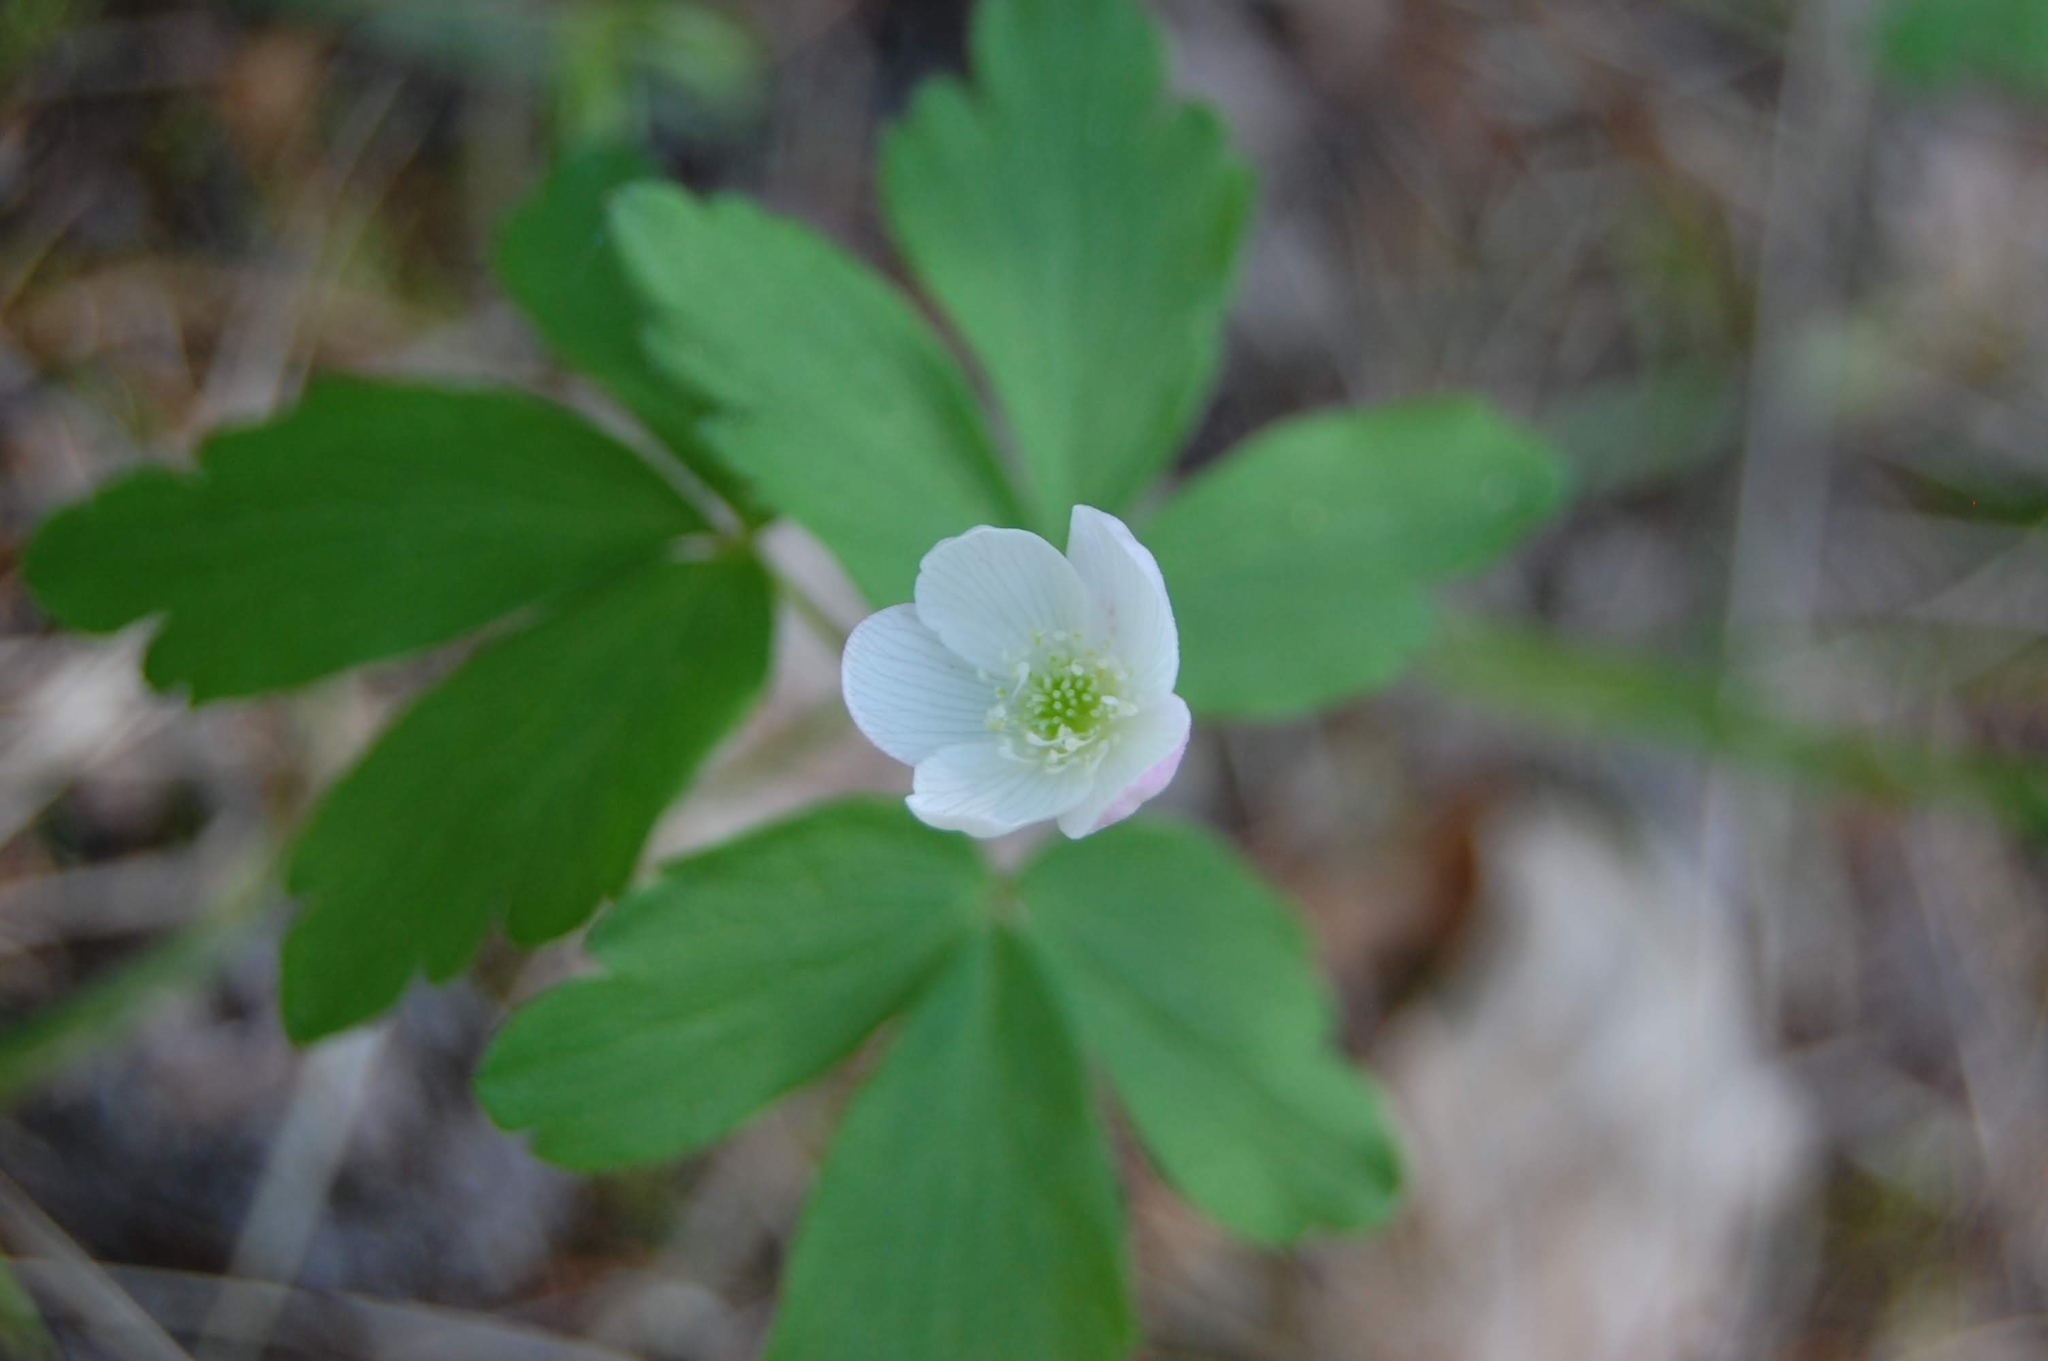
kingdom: Plantae
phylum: Tracheophyta
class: Magnoliopsida
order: Ranunculales
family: Ranunculaceae
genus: Anemone
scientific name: Anemone quinquefolia
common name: Wood anemone
